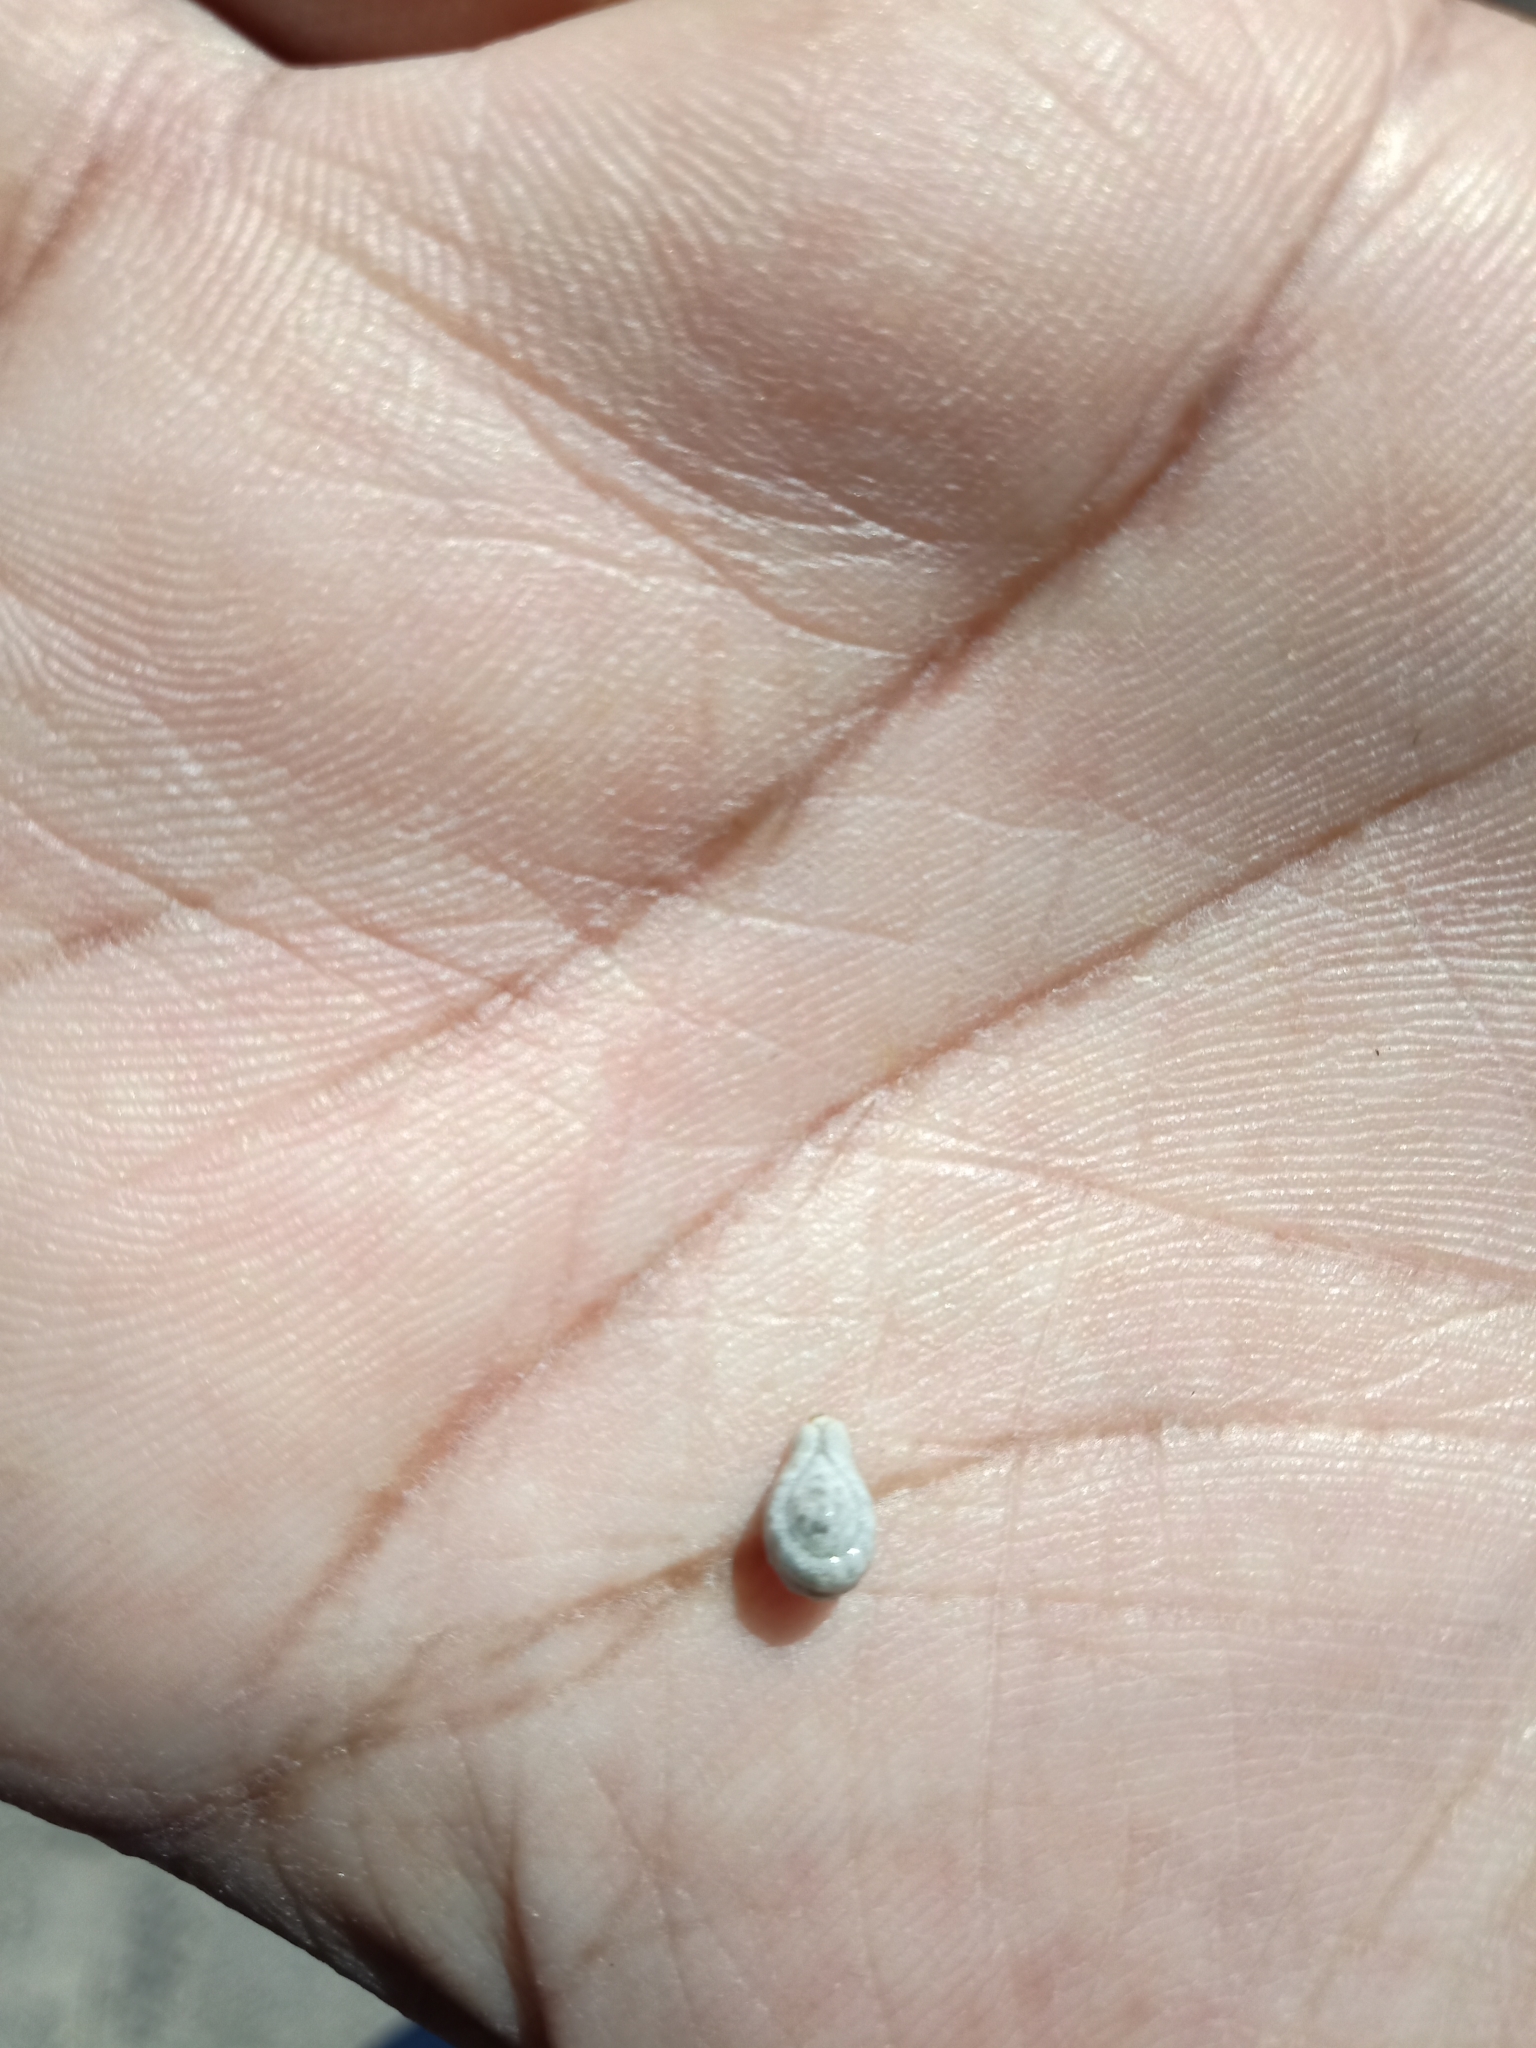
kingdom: Plantae
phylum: Tracheophyta
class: Magnoliopsida
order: Cucurbitales
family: Cucurbitaceae
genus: Diplocyclos
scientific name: Diplocyclos palmatus
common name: Striped-cucumber
